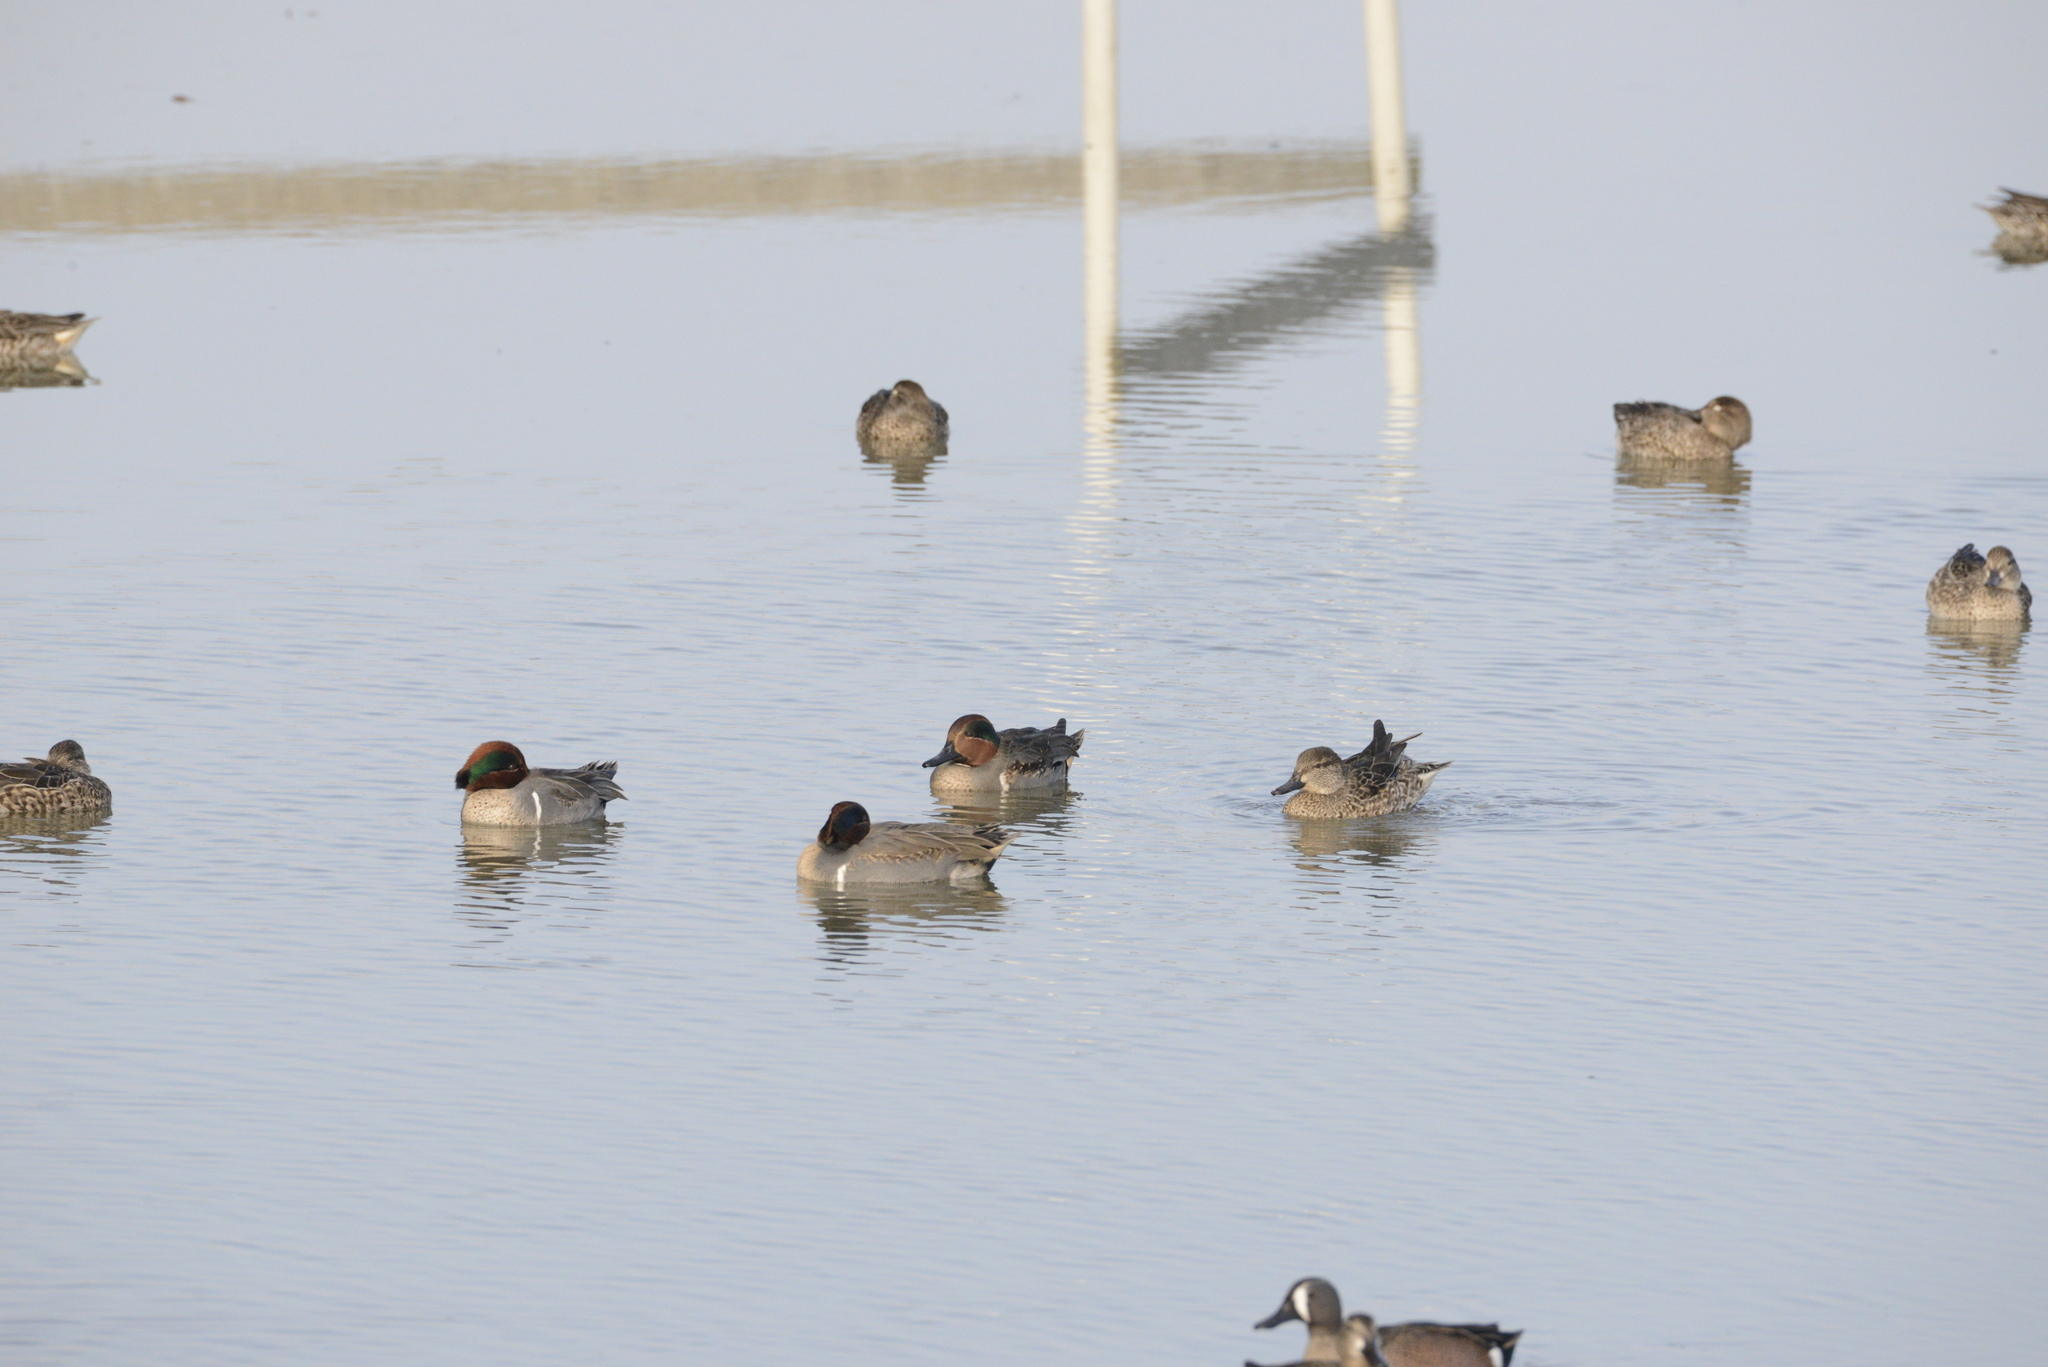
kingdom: Animalia
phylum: Chordata
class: Aves
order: Anseriformes
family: Anatidae
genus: Anas
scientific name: Anas crecca
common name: Eurasian teal
